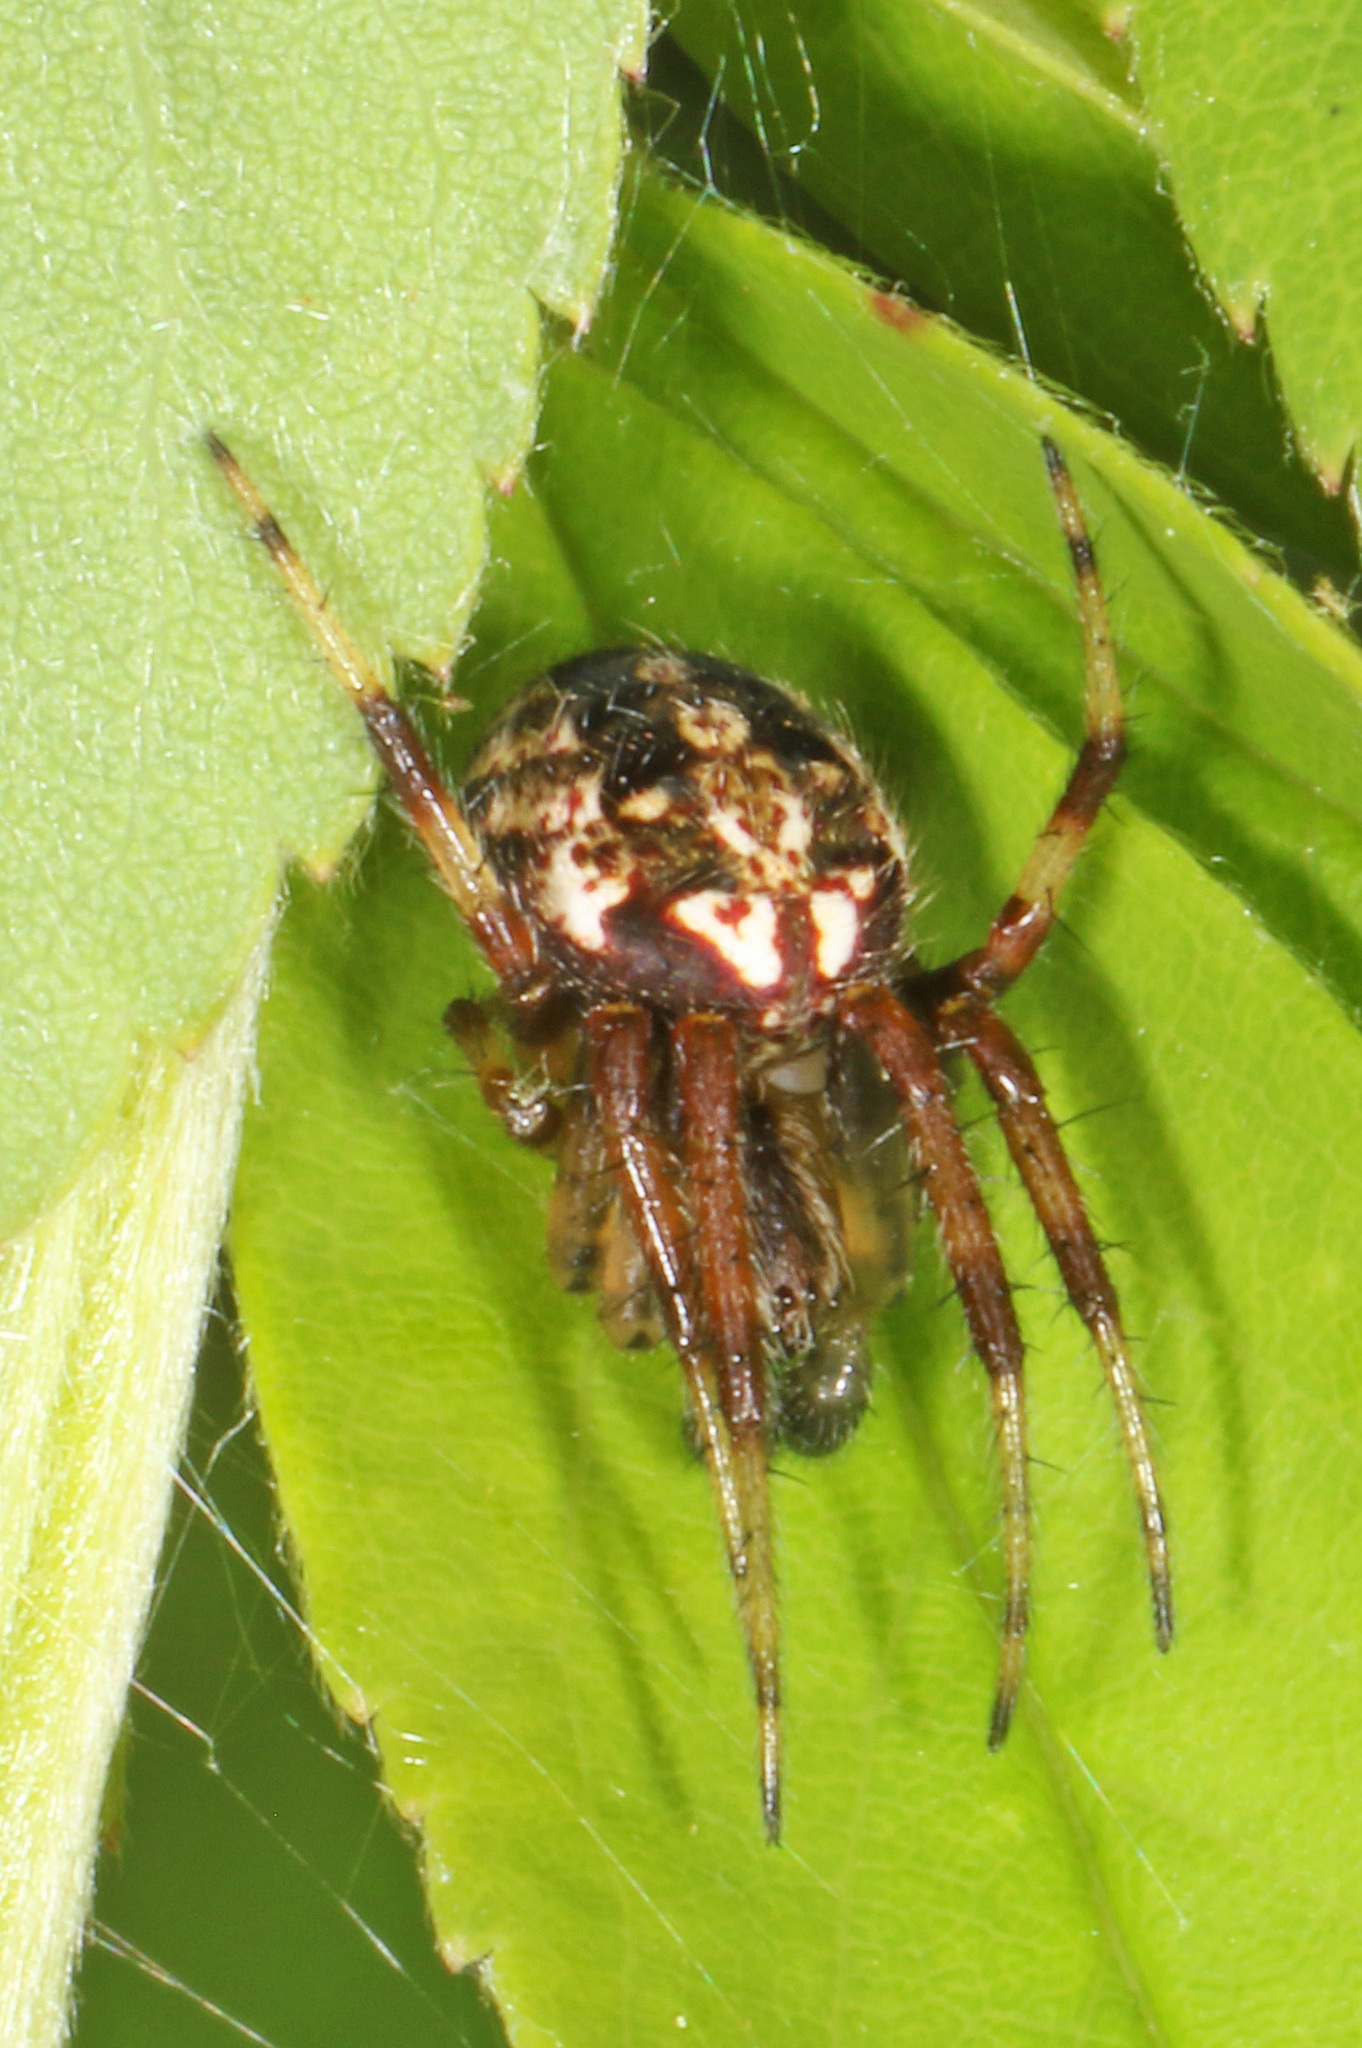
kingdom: Animalia
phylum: Arthropoda
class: Arachnida
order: Araneae
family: Araneidae
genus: Neoscona
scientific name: Neoscona arabesca
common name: Orb weavers
